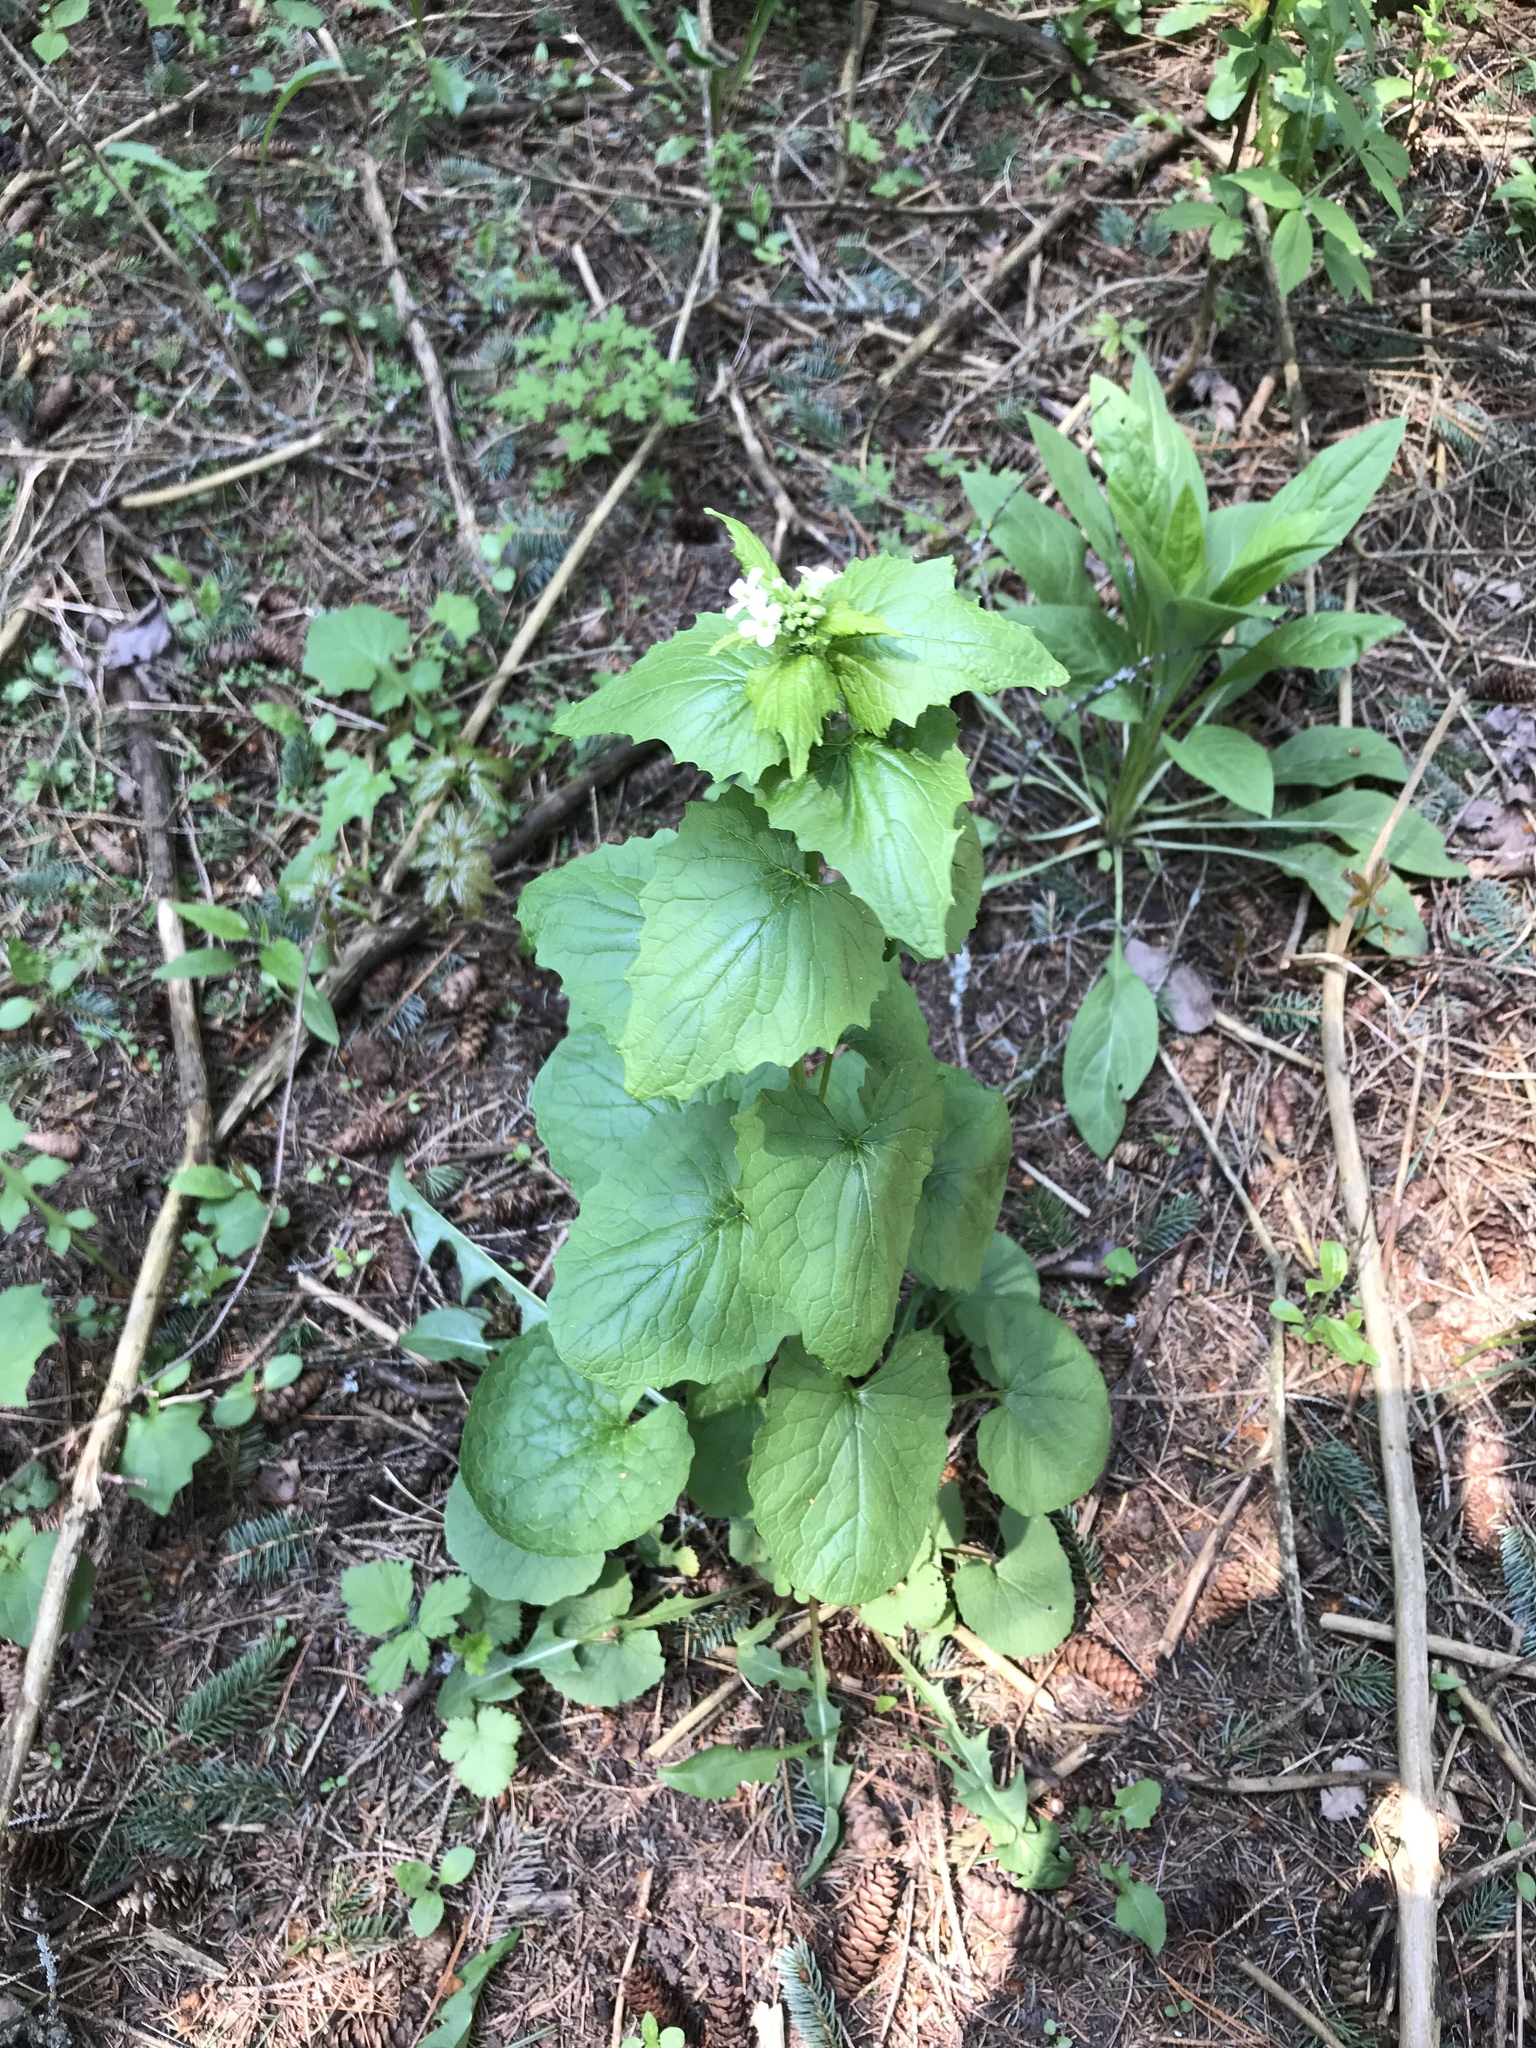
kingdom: Plantae
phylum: Tracheophyta
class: Magnoliopsida
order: Brassicales
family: Brassicaceae
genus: Alliaria
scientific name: Alliaria petiolata
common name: Garlic mustard
